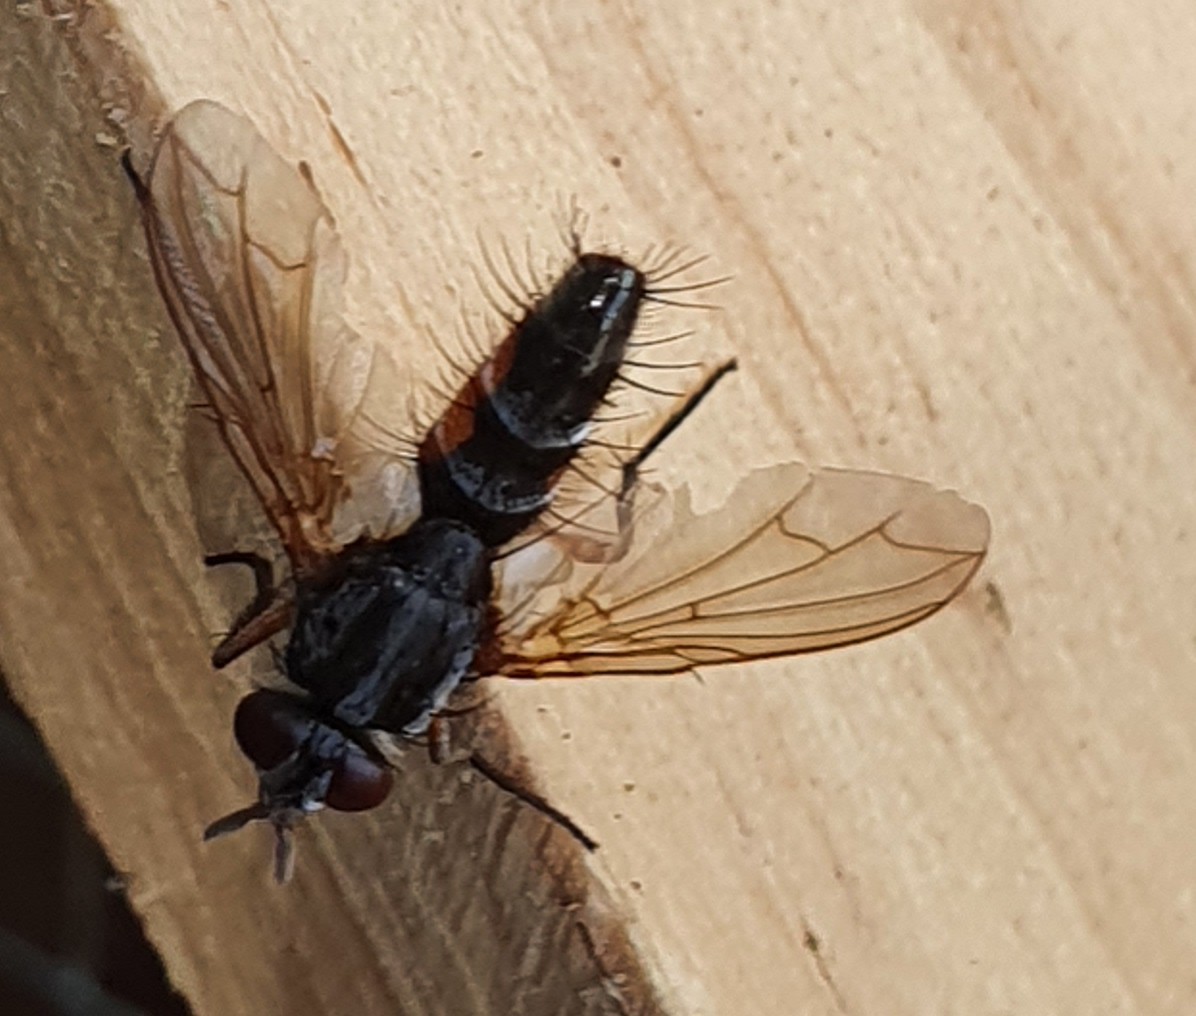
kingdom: Animalia
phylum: Arthropoda
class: Insecta
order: Diptera
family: Tachinidae
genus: Mintho
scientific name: Mintho rufiventris
